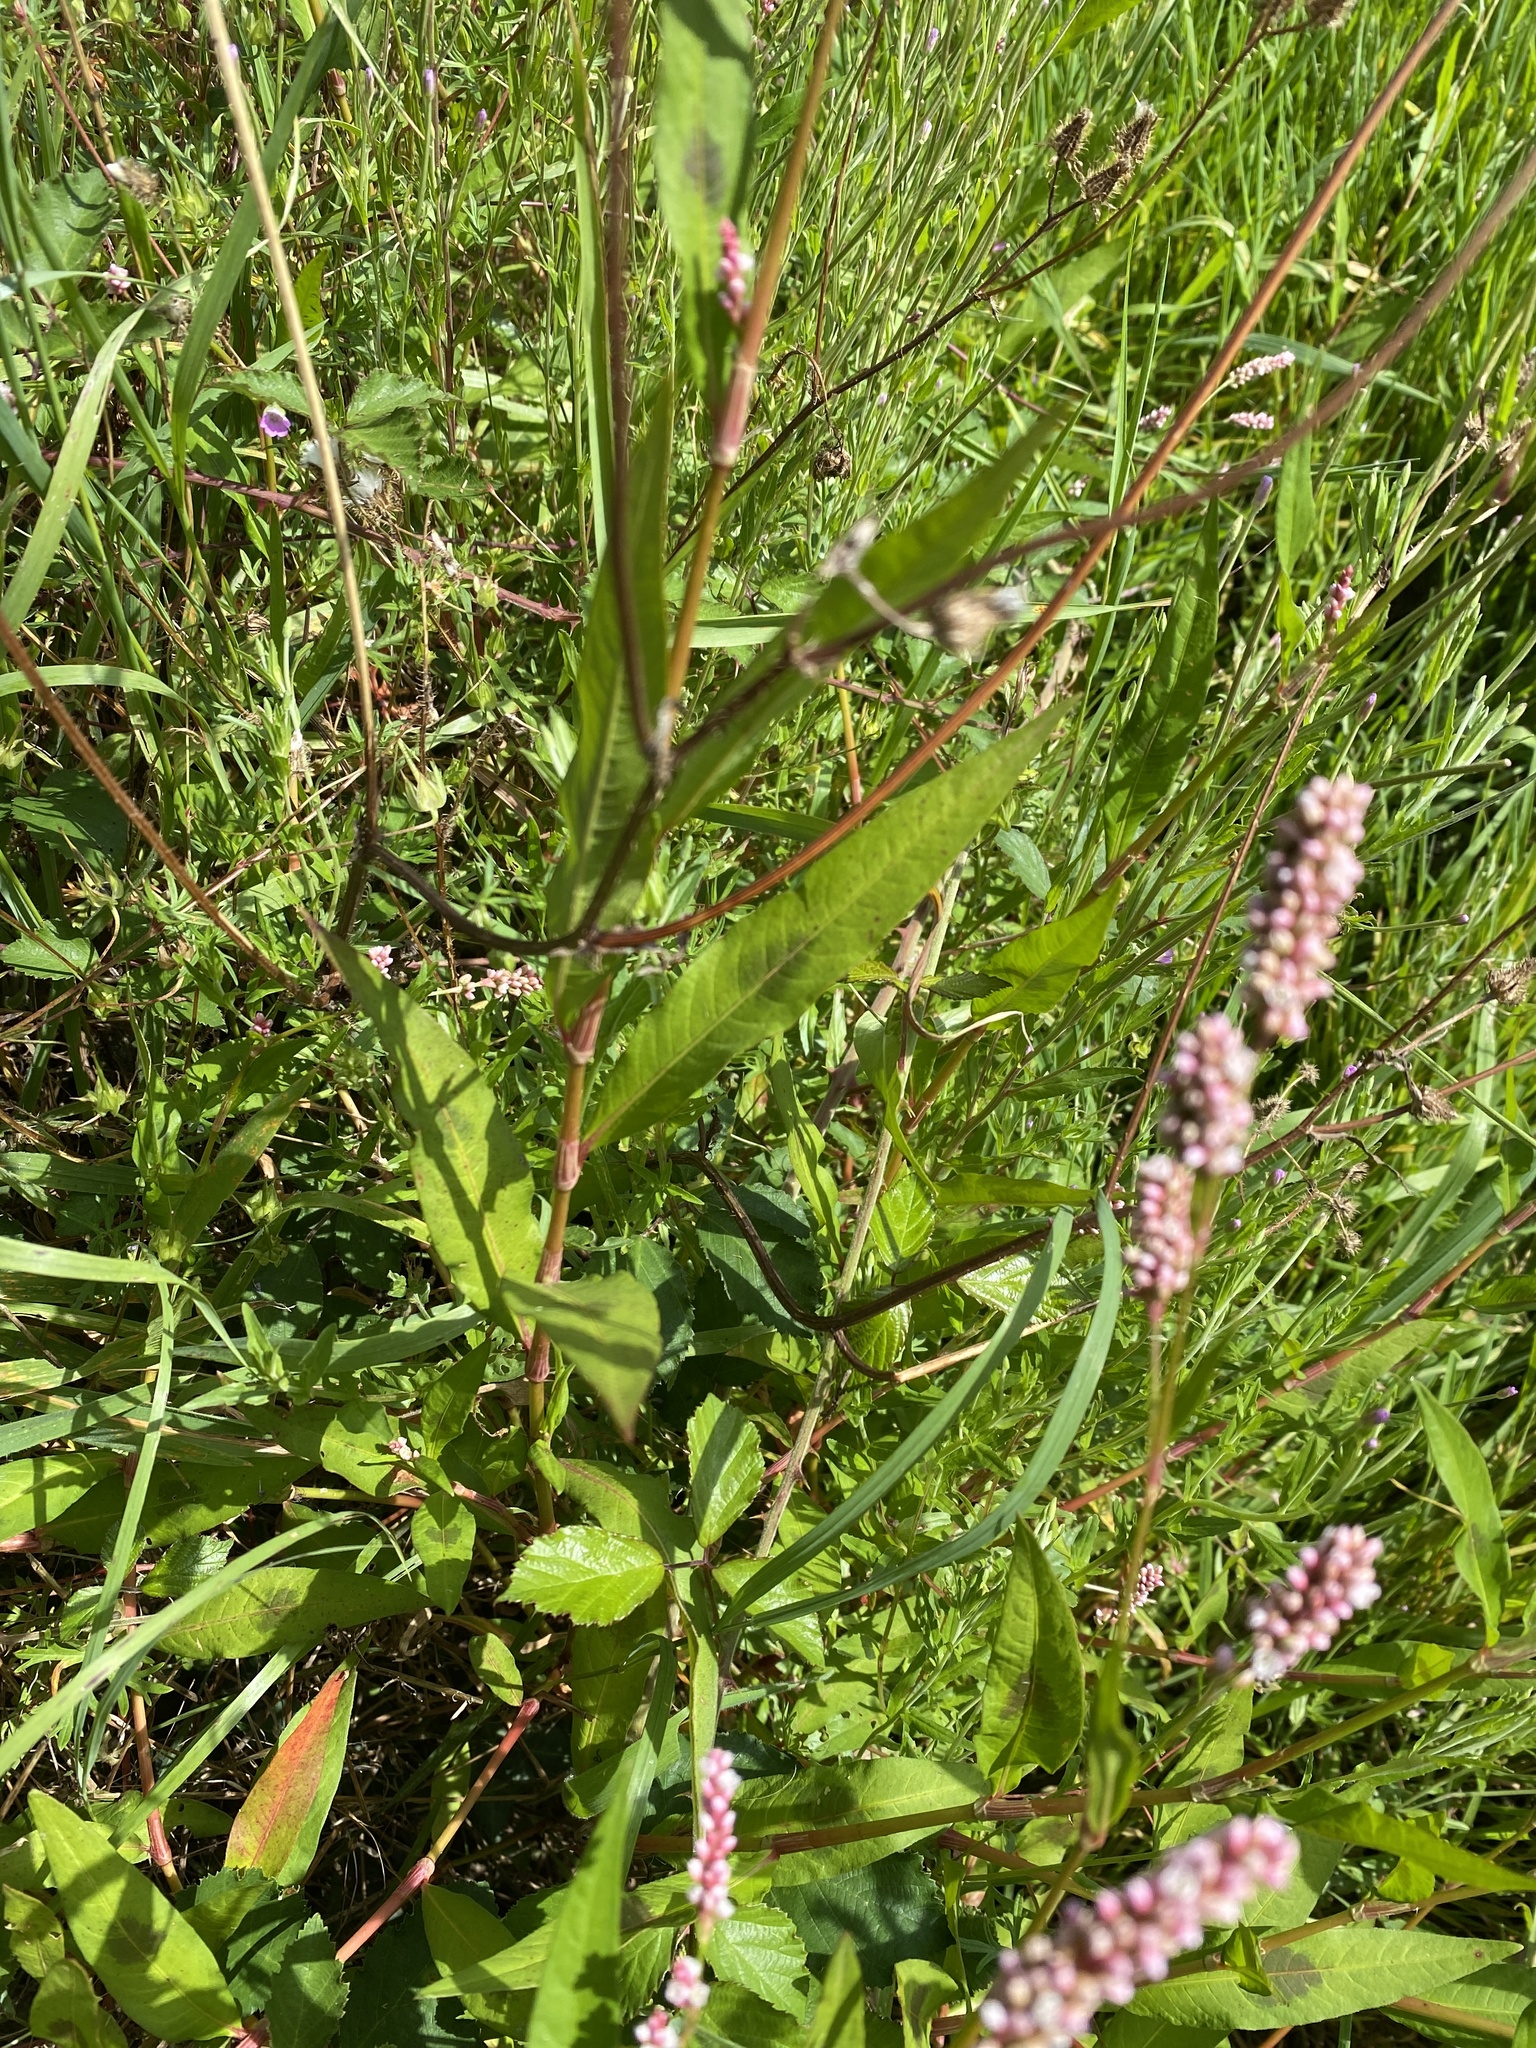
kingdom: Plantae
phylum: Tracheophyta
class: Magnoliopsida
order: Caryophyllales
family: Polygonaceae
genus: Persicaria
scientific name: Persicaria maculosa
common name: Redshank
